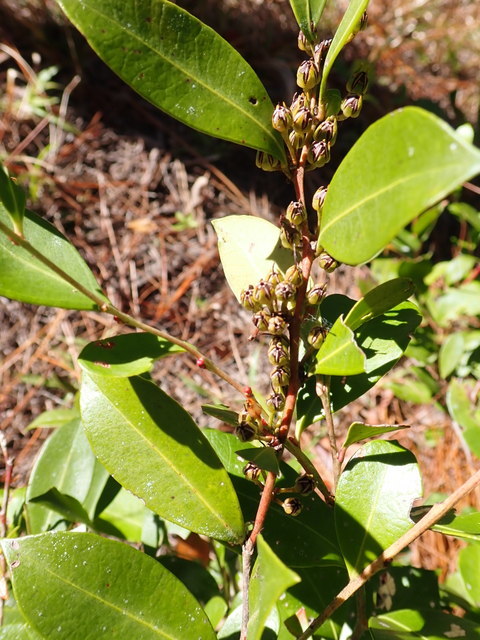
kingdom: Plantae
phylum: Tracheophyta
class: Magnoliopsida
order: Ericales
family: Ericaceae
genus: Lyonia
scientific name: Lyonia lucida
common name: Fetterbush
